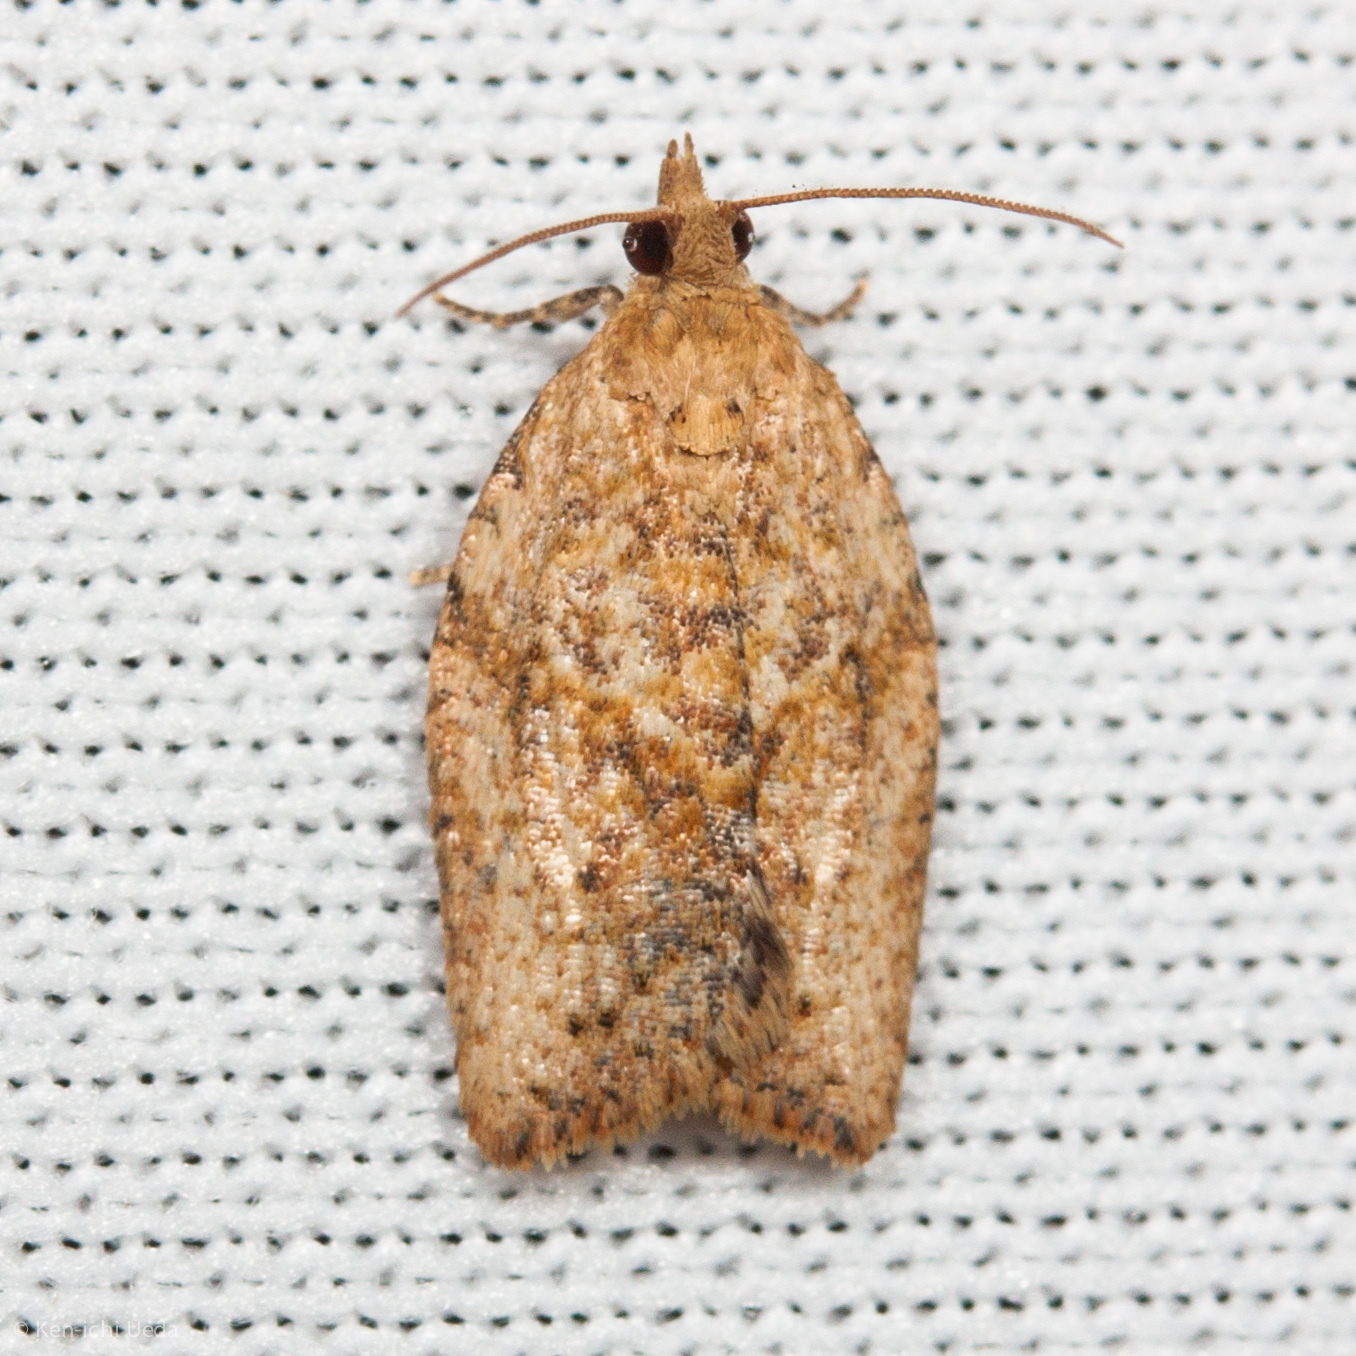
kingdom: Animalia
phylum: Arthropoda
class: Insecta
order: Lepidoptera
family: Tortricidae
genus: Epiphyas
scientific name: Epiphyas postvittana
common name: Light brown apple moth
